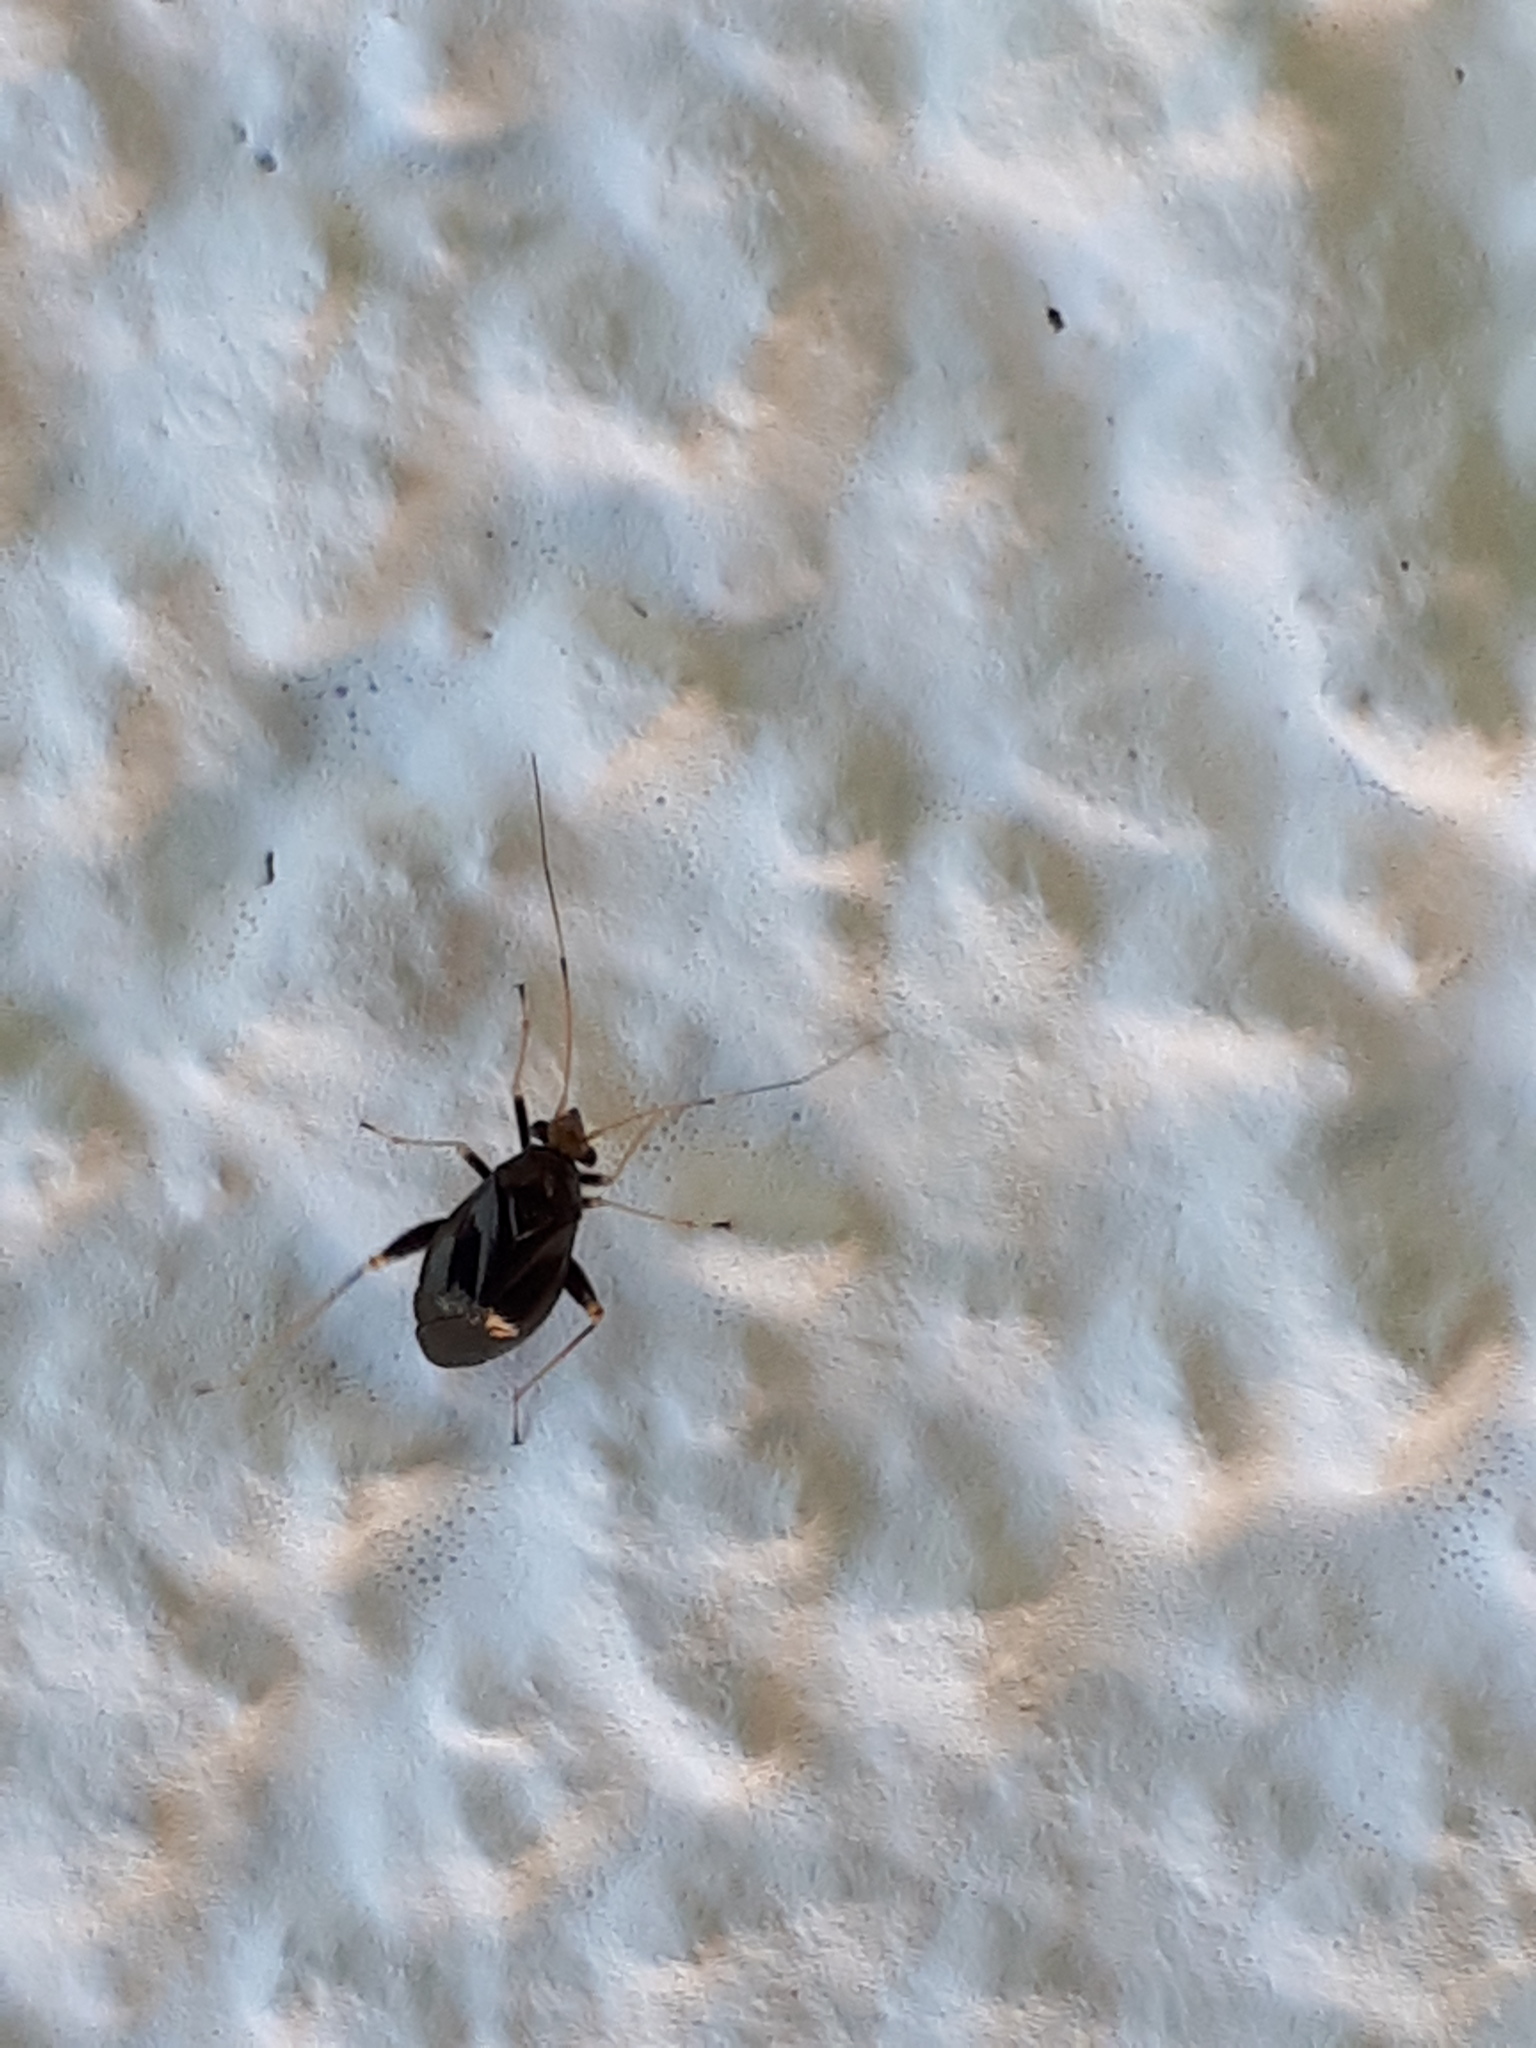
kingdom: Animalia
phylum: Arthropoda
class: Insecta
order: Hemiptera
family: Miridae
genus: Halticus
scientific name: Halticus luteicollis
